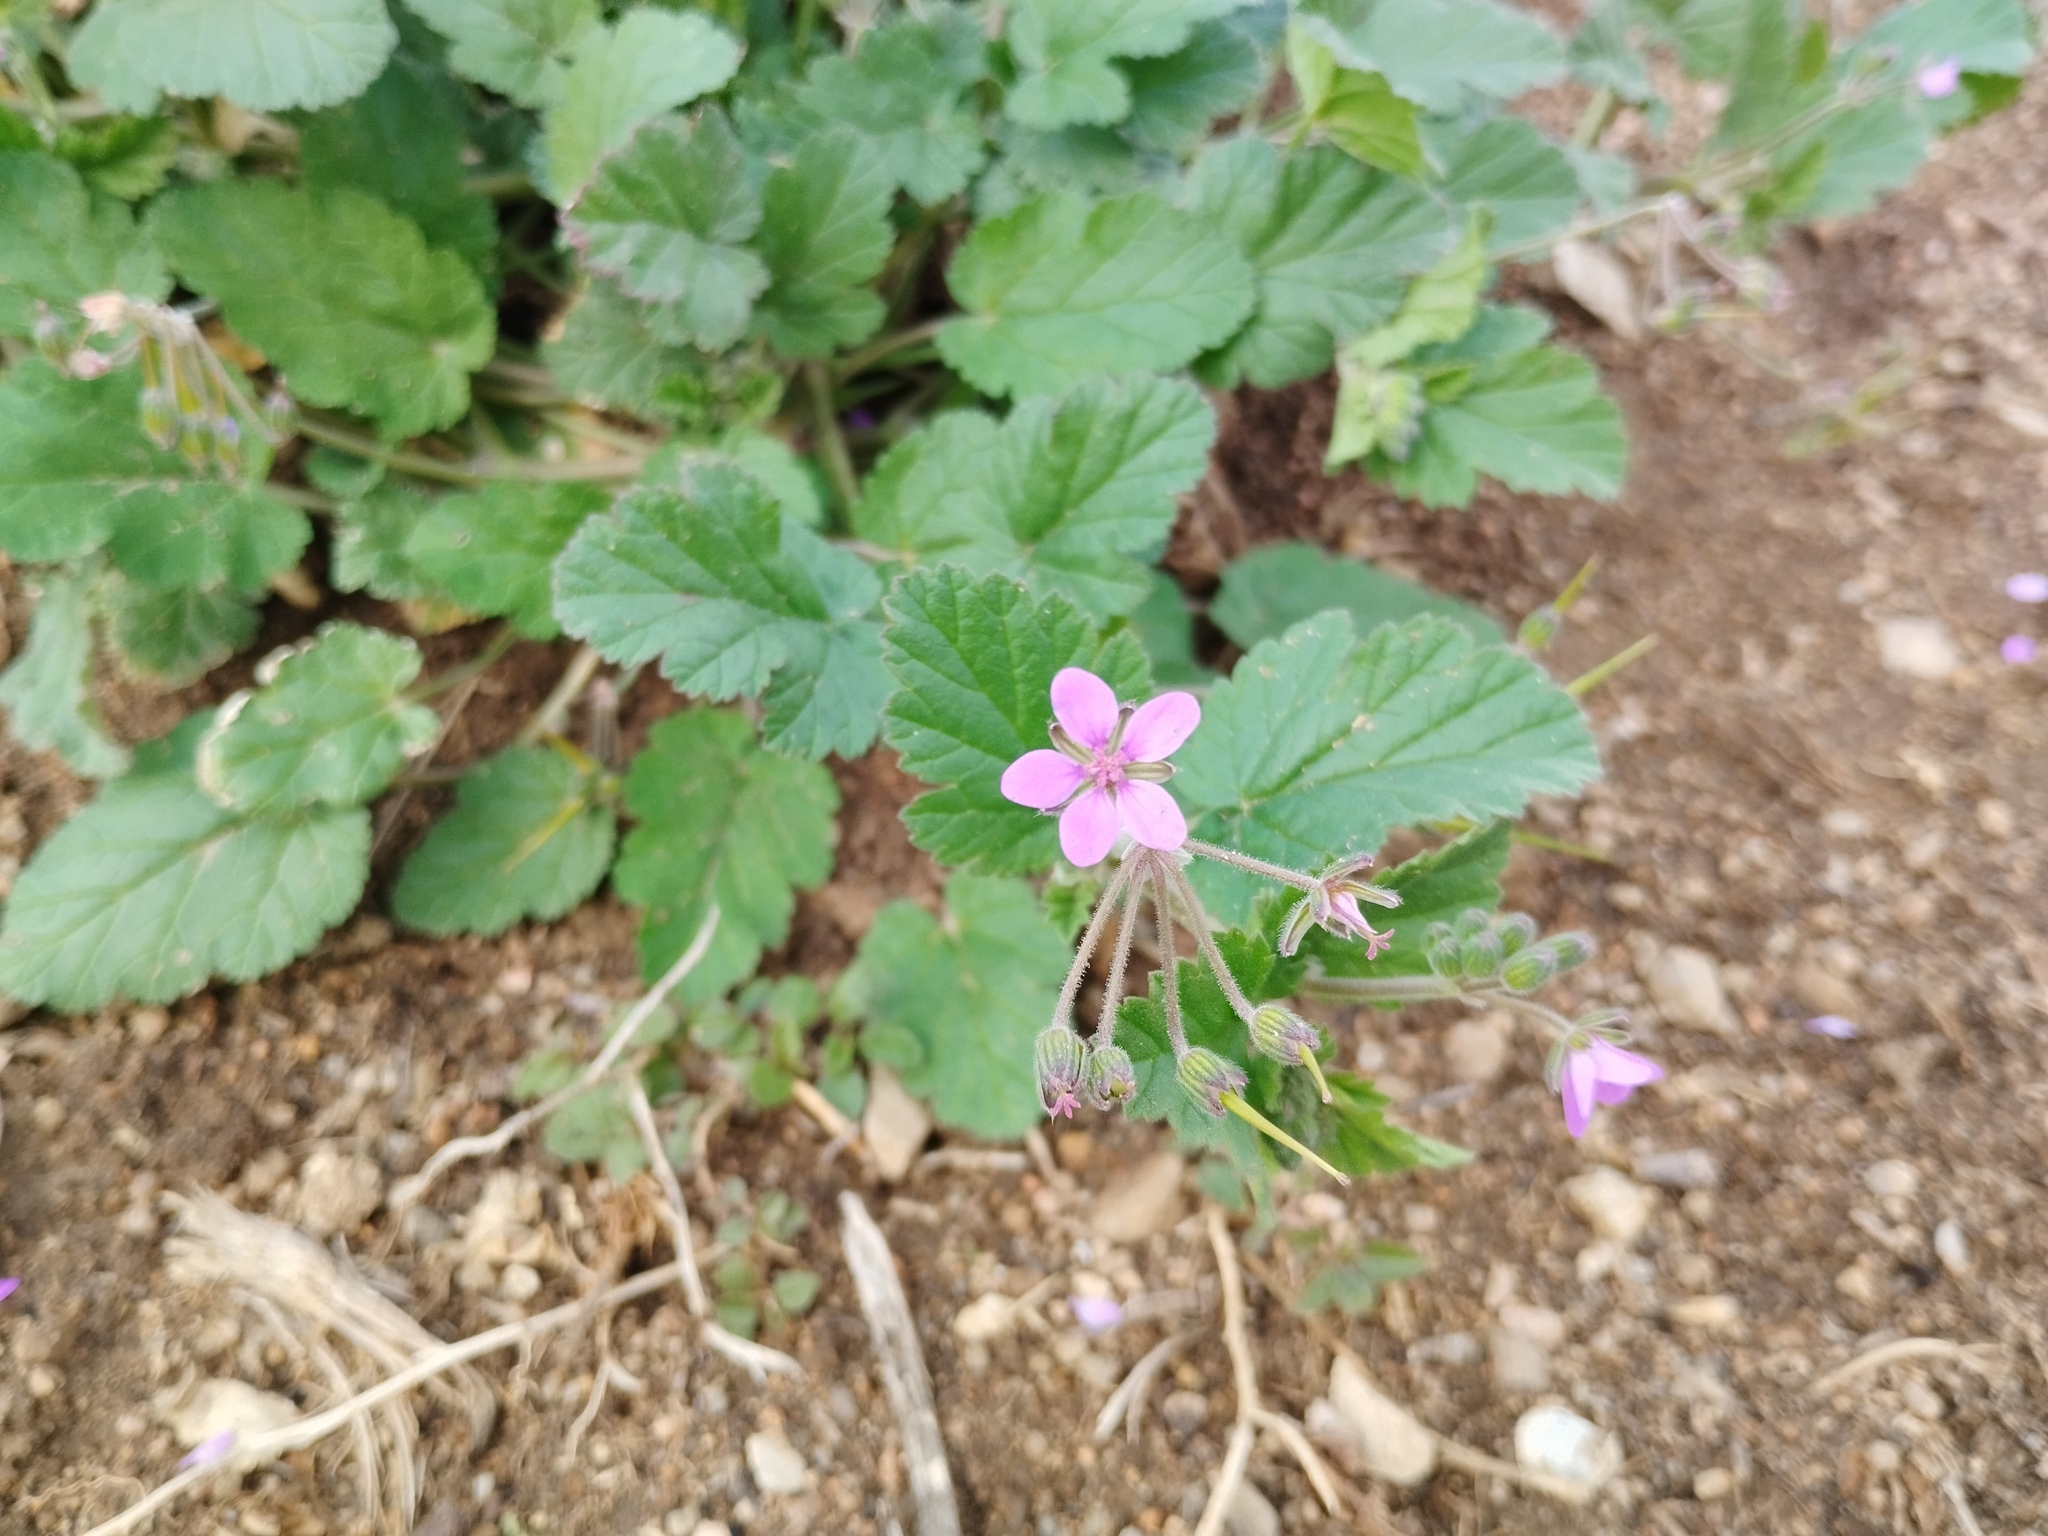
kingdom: Plantae
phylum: Tracheophyta
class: Magnoliopsida
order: Geraniales
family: Geraniaceae
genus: Erodium
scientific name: Erodium malacoides
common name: Soft stork's-bill
